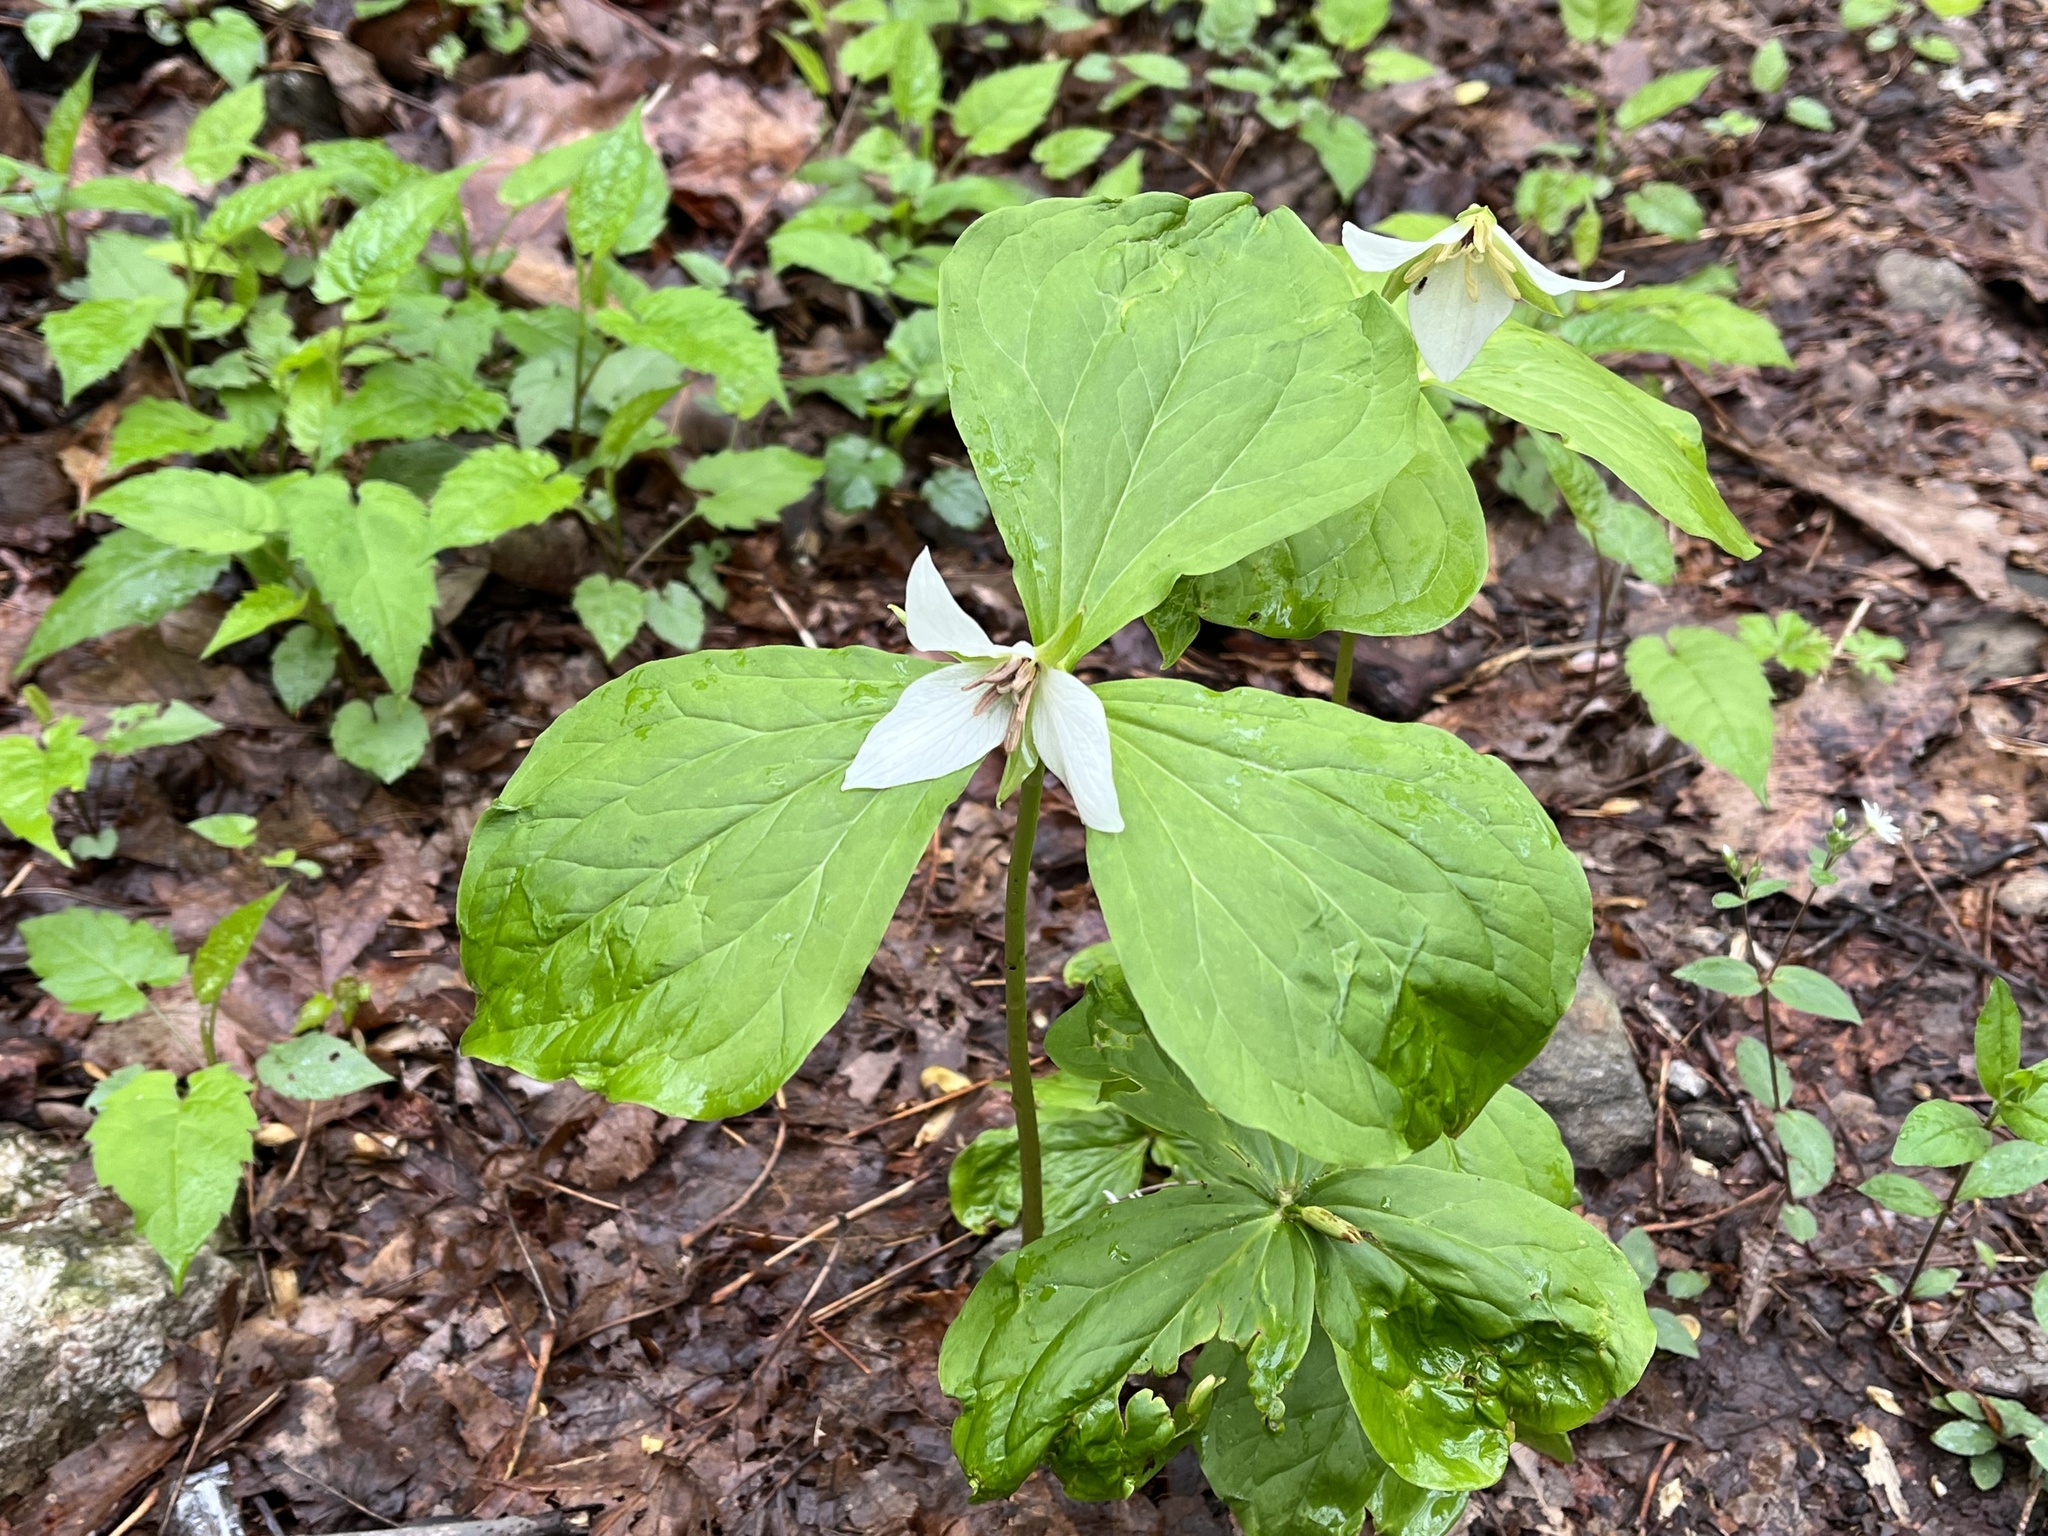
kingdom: Plantae
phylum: Tracheophyta
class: Liliopsida
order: Liliales
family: Melanthiaceae
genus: Trillium
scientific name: Trillium simile
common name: Confusing trillium
